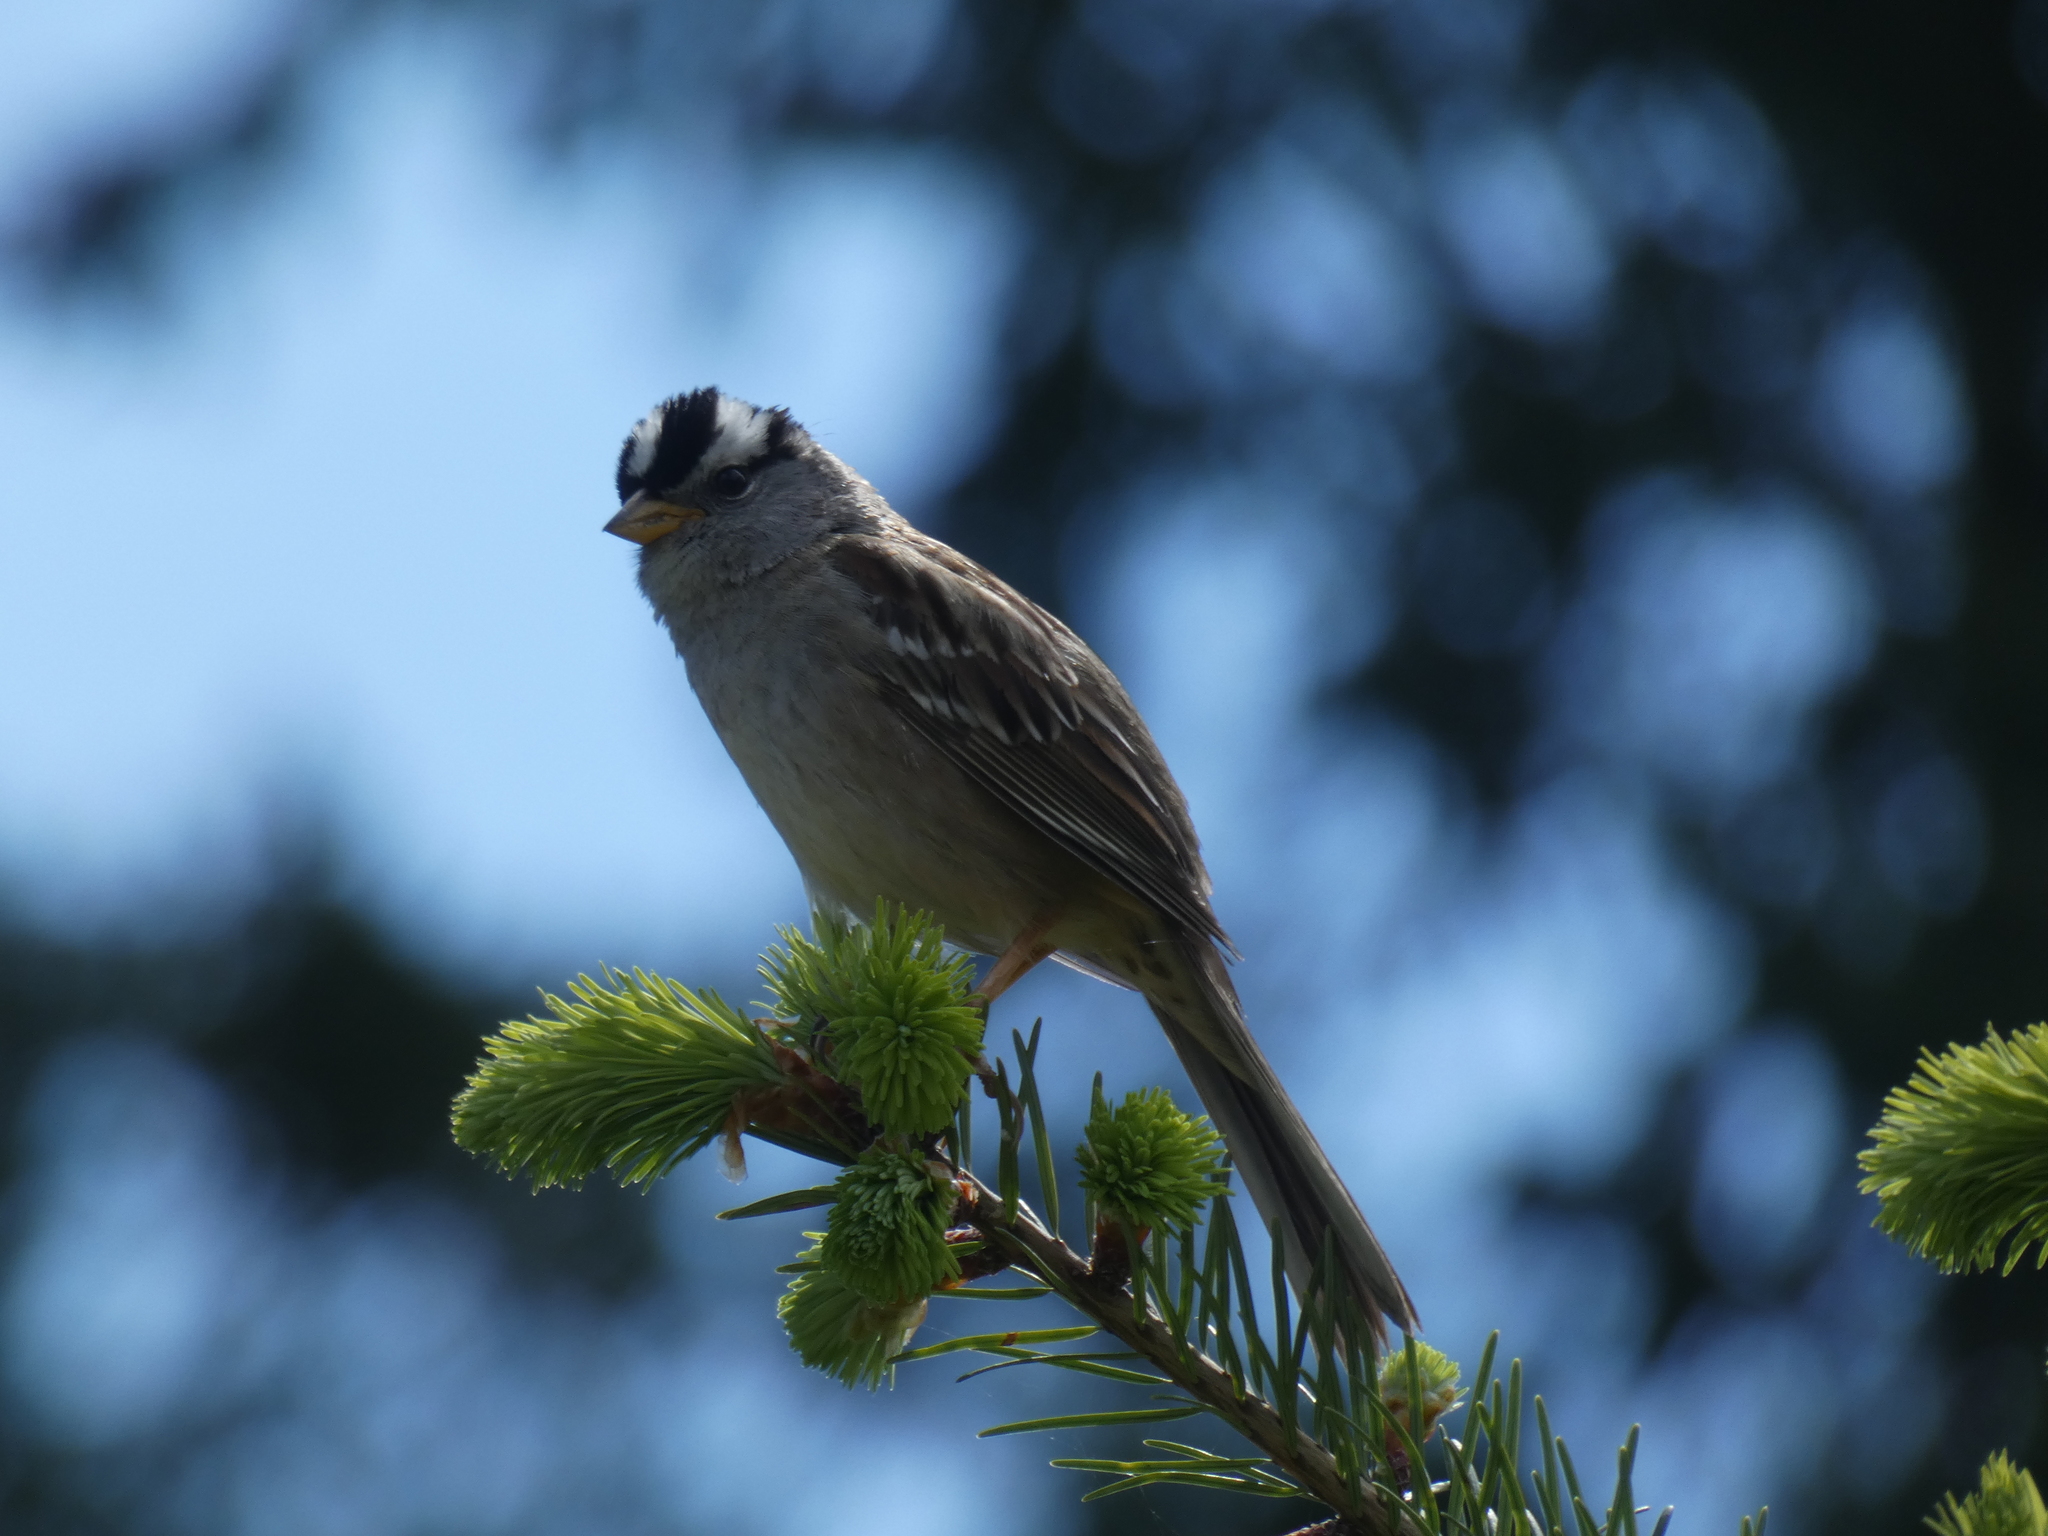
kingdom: Animalia
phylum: Chordata
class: Aves
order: Passeriformes
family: Passerellidae
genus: Zonotrichia
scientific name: Zonotrichia leucophrys
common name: White-crowned sparrow
